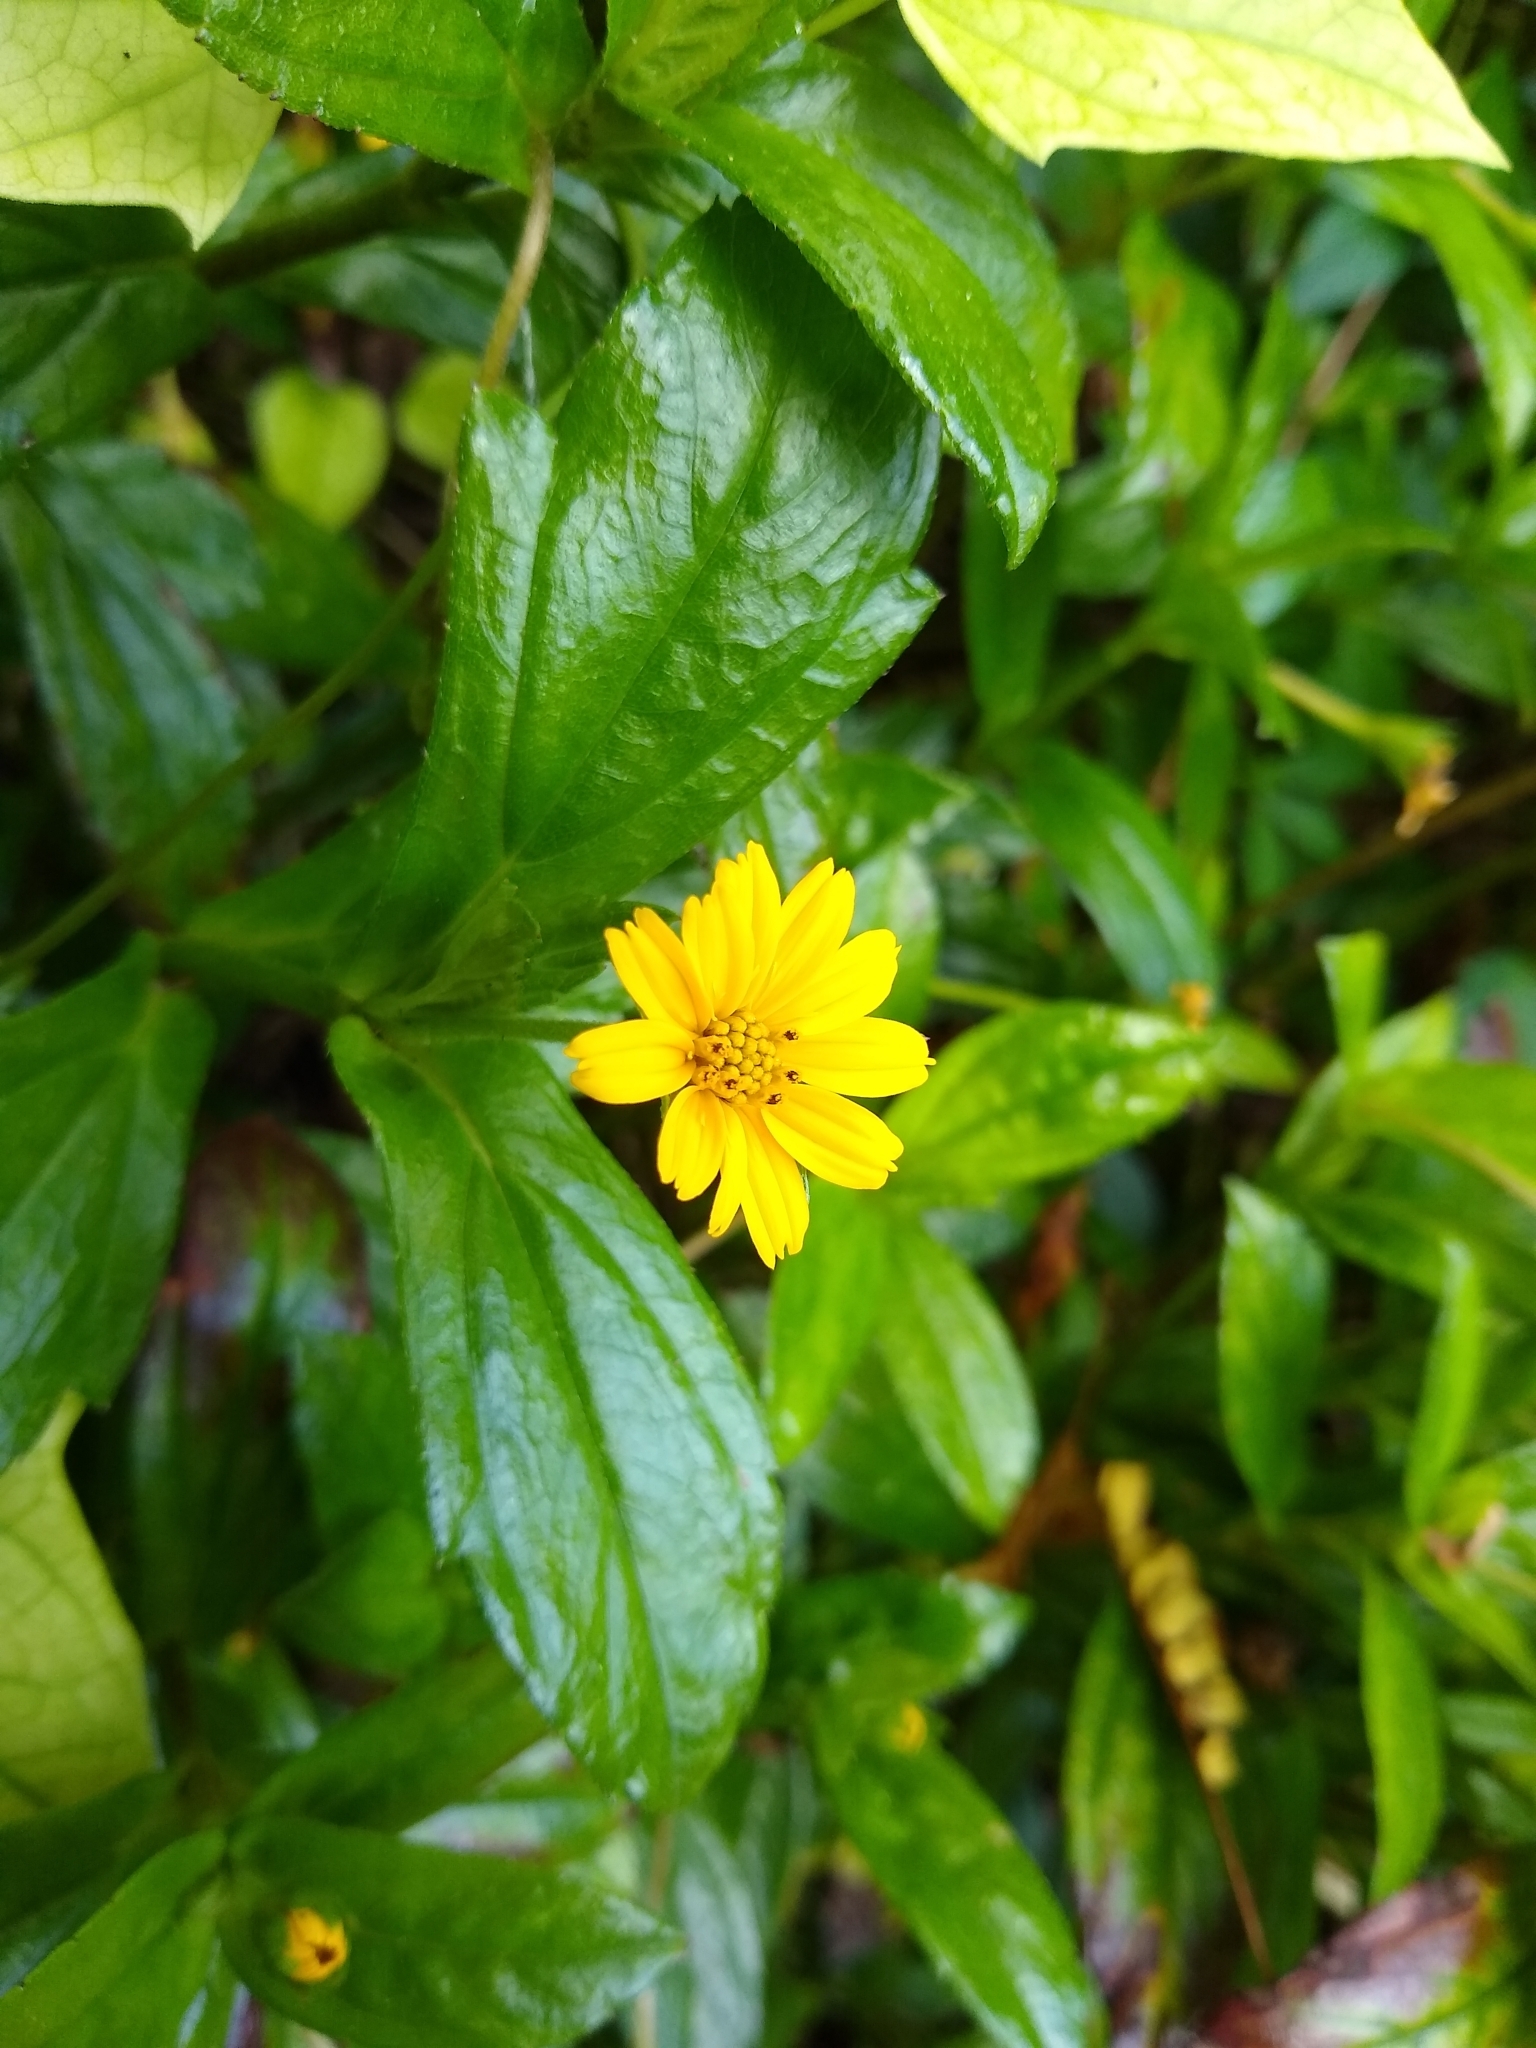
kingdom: Plantae
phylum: Tracheophyta
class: Magnoliopsida
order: Asterales
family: Asteraceae
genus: Sphagneticola
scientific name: Sphagneticola trilobata
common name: Bay biscayne creeping-oxeye
